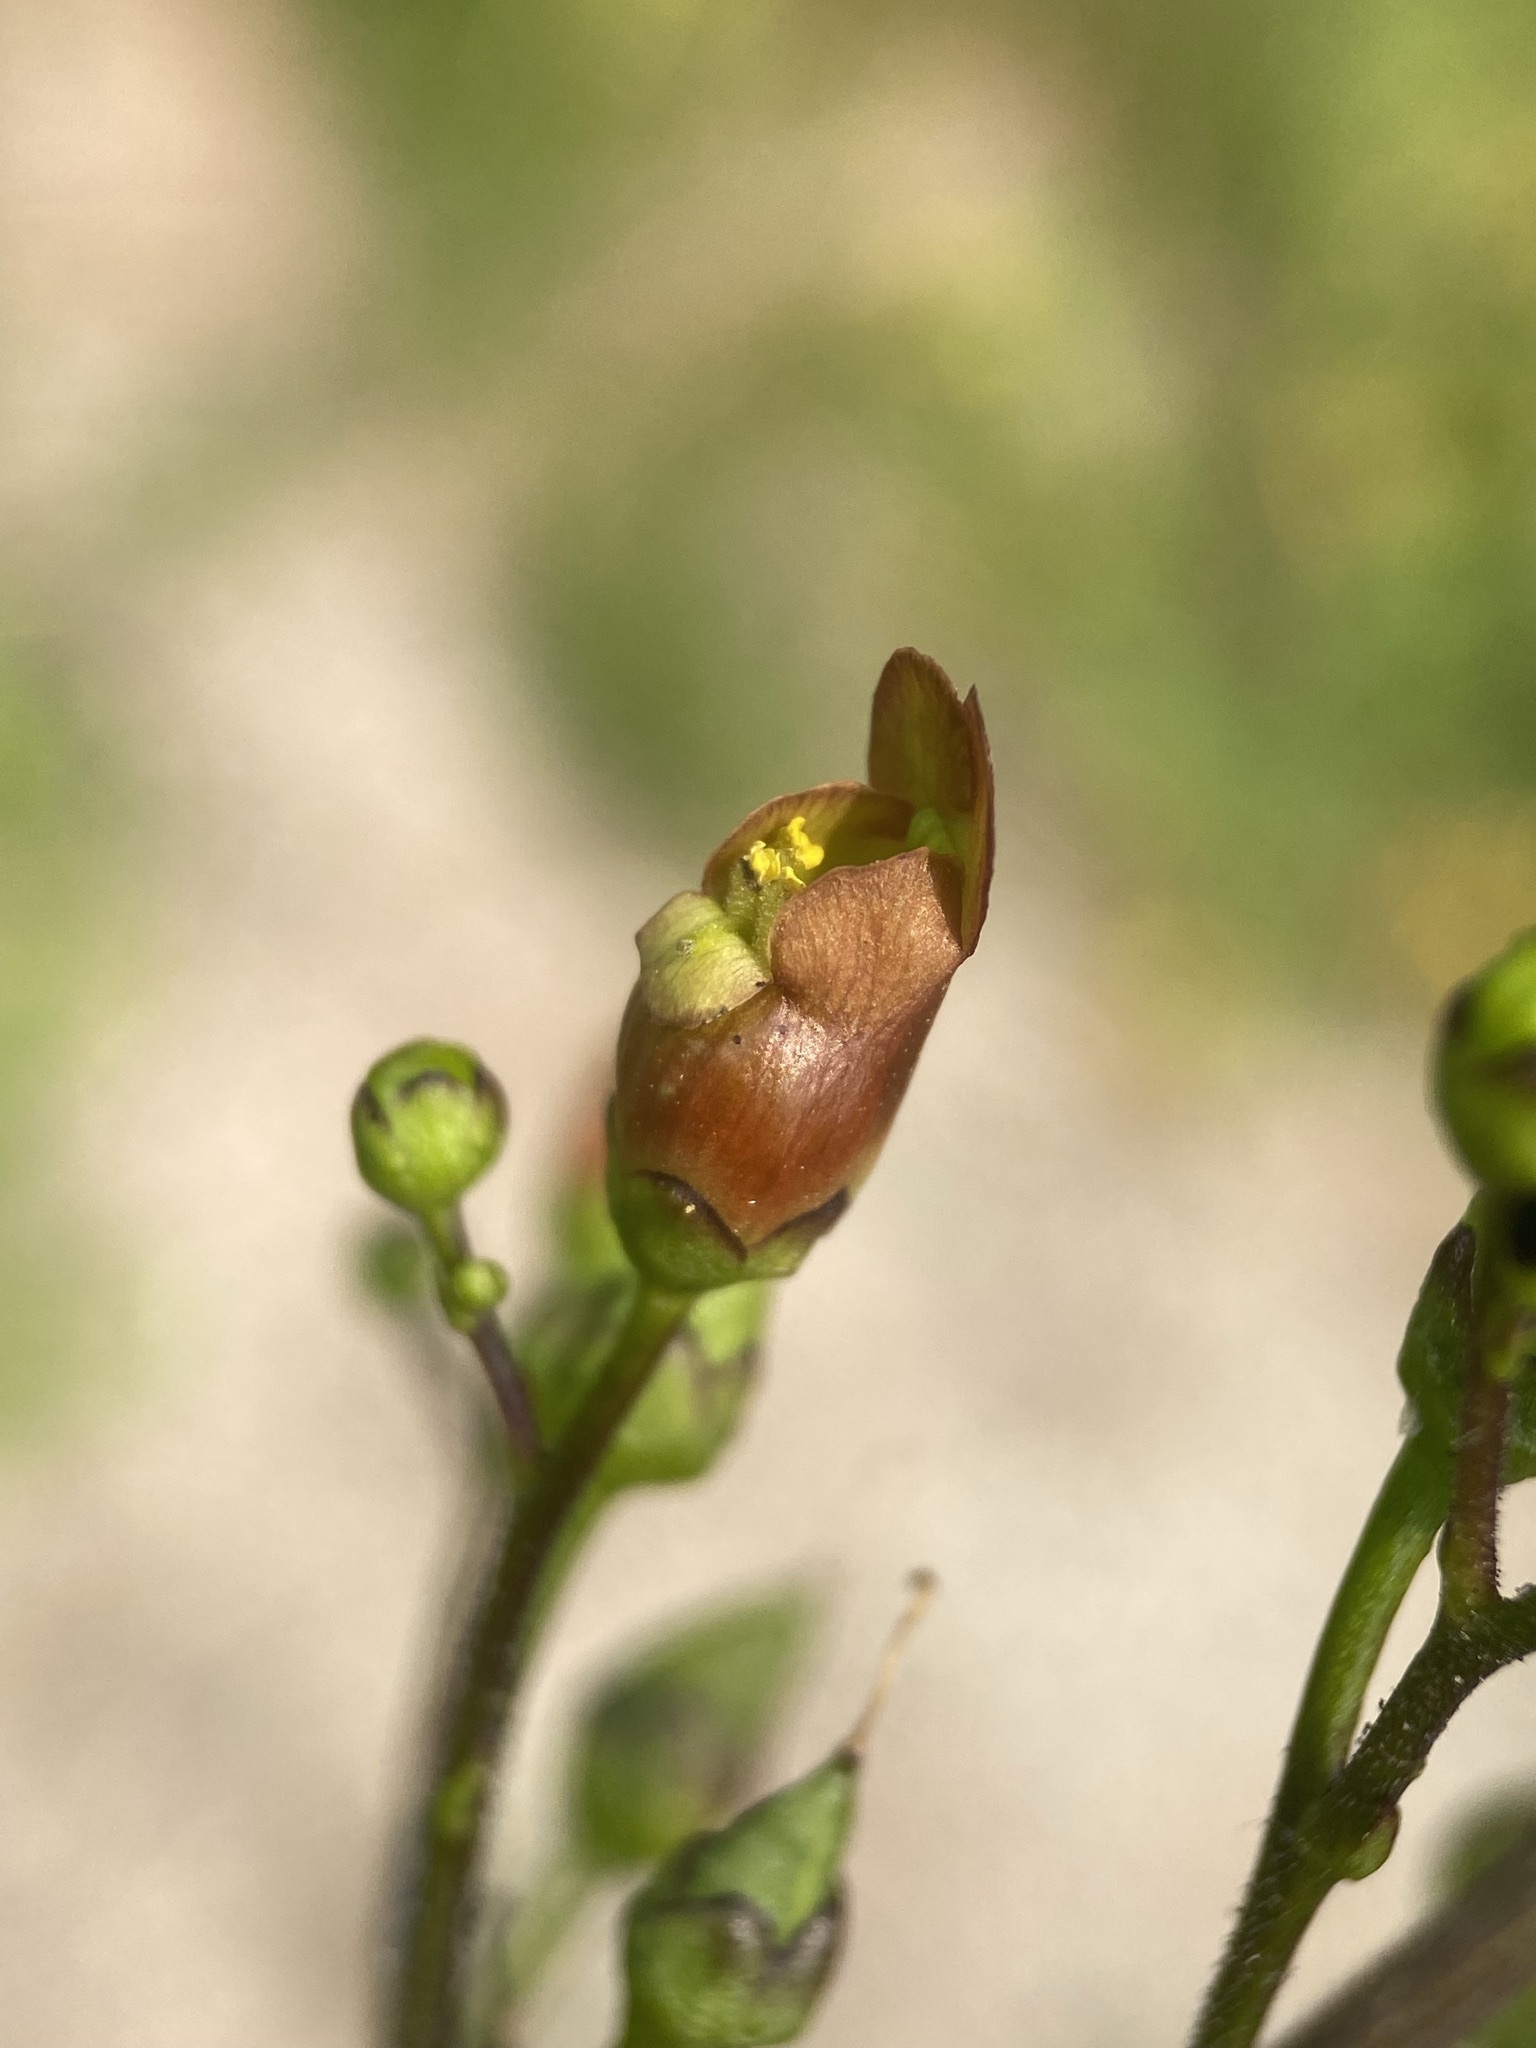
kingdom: Plantae
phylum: Tracheophyta
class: Magnoliopsida
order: Lamiales
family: Scrophulariaceae
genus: Scrophularia
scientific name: Scrophularia lanceolata
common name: American figwort
